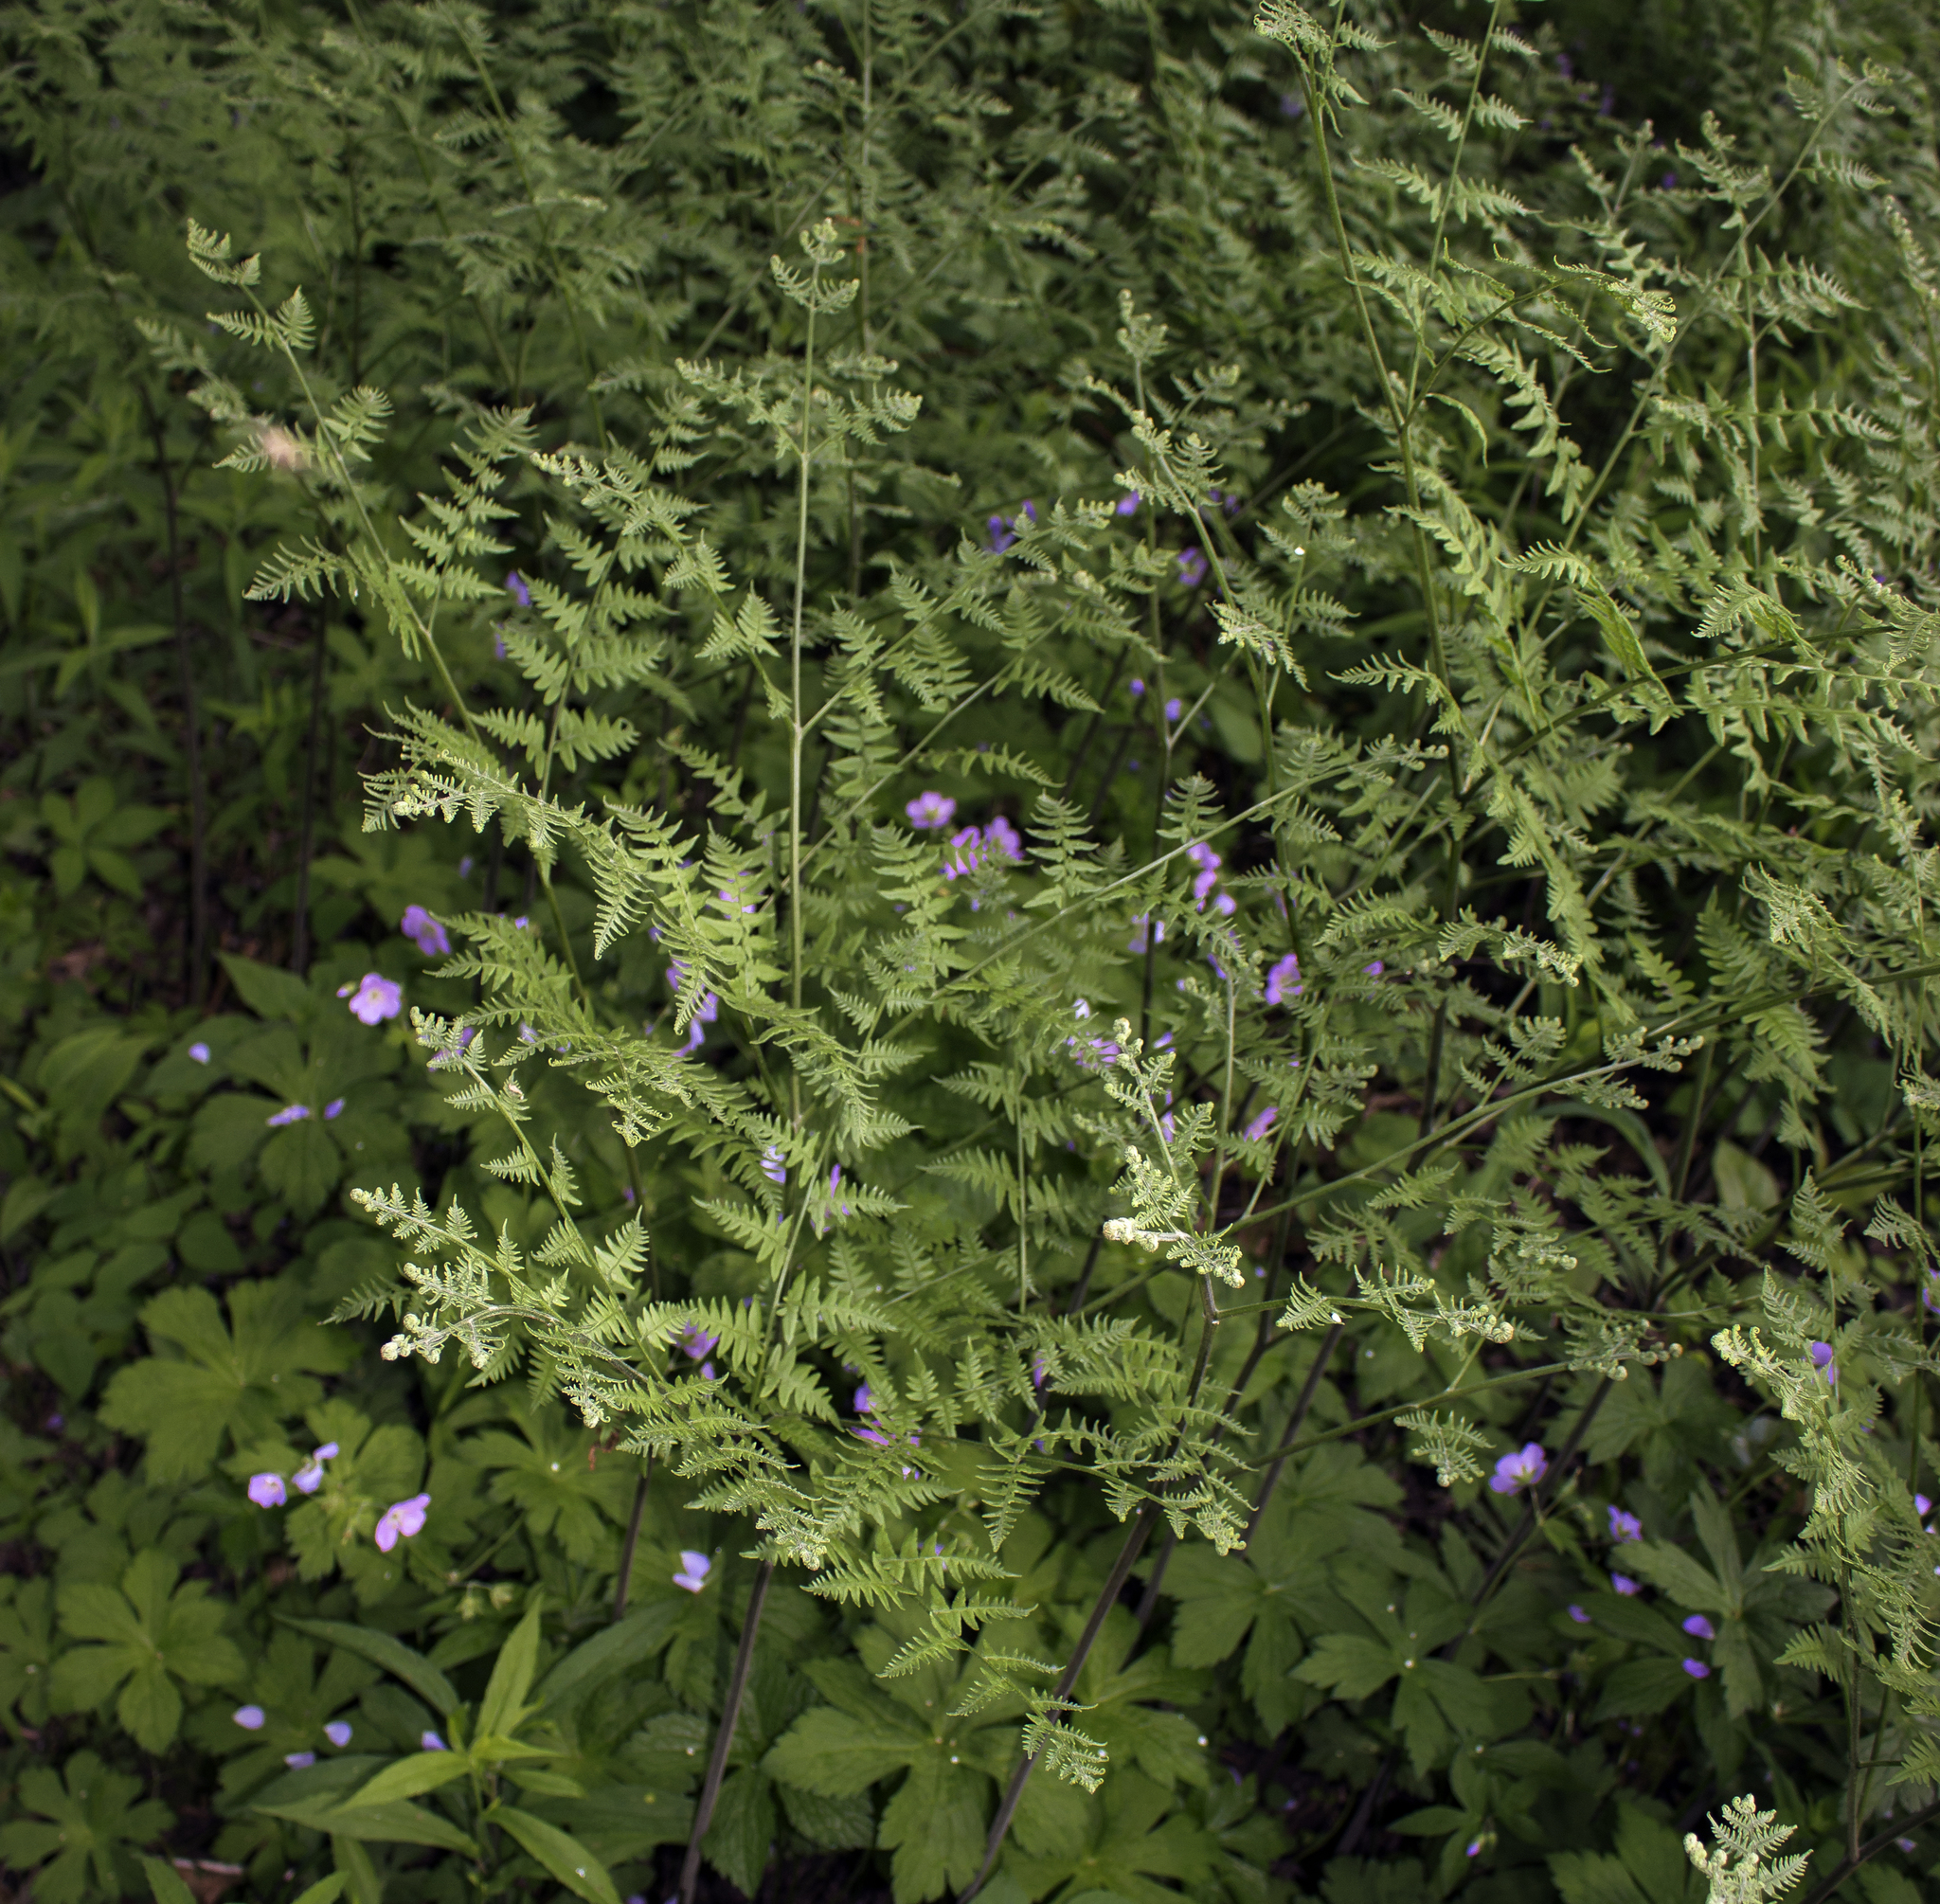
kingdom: Plantae
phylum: Tracheophyta
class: Polypodiopsida
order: Polypodiales
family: Dennstaedtiaceae
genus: Pteridium
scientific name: Pteridium aquilinum
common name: Bracken
